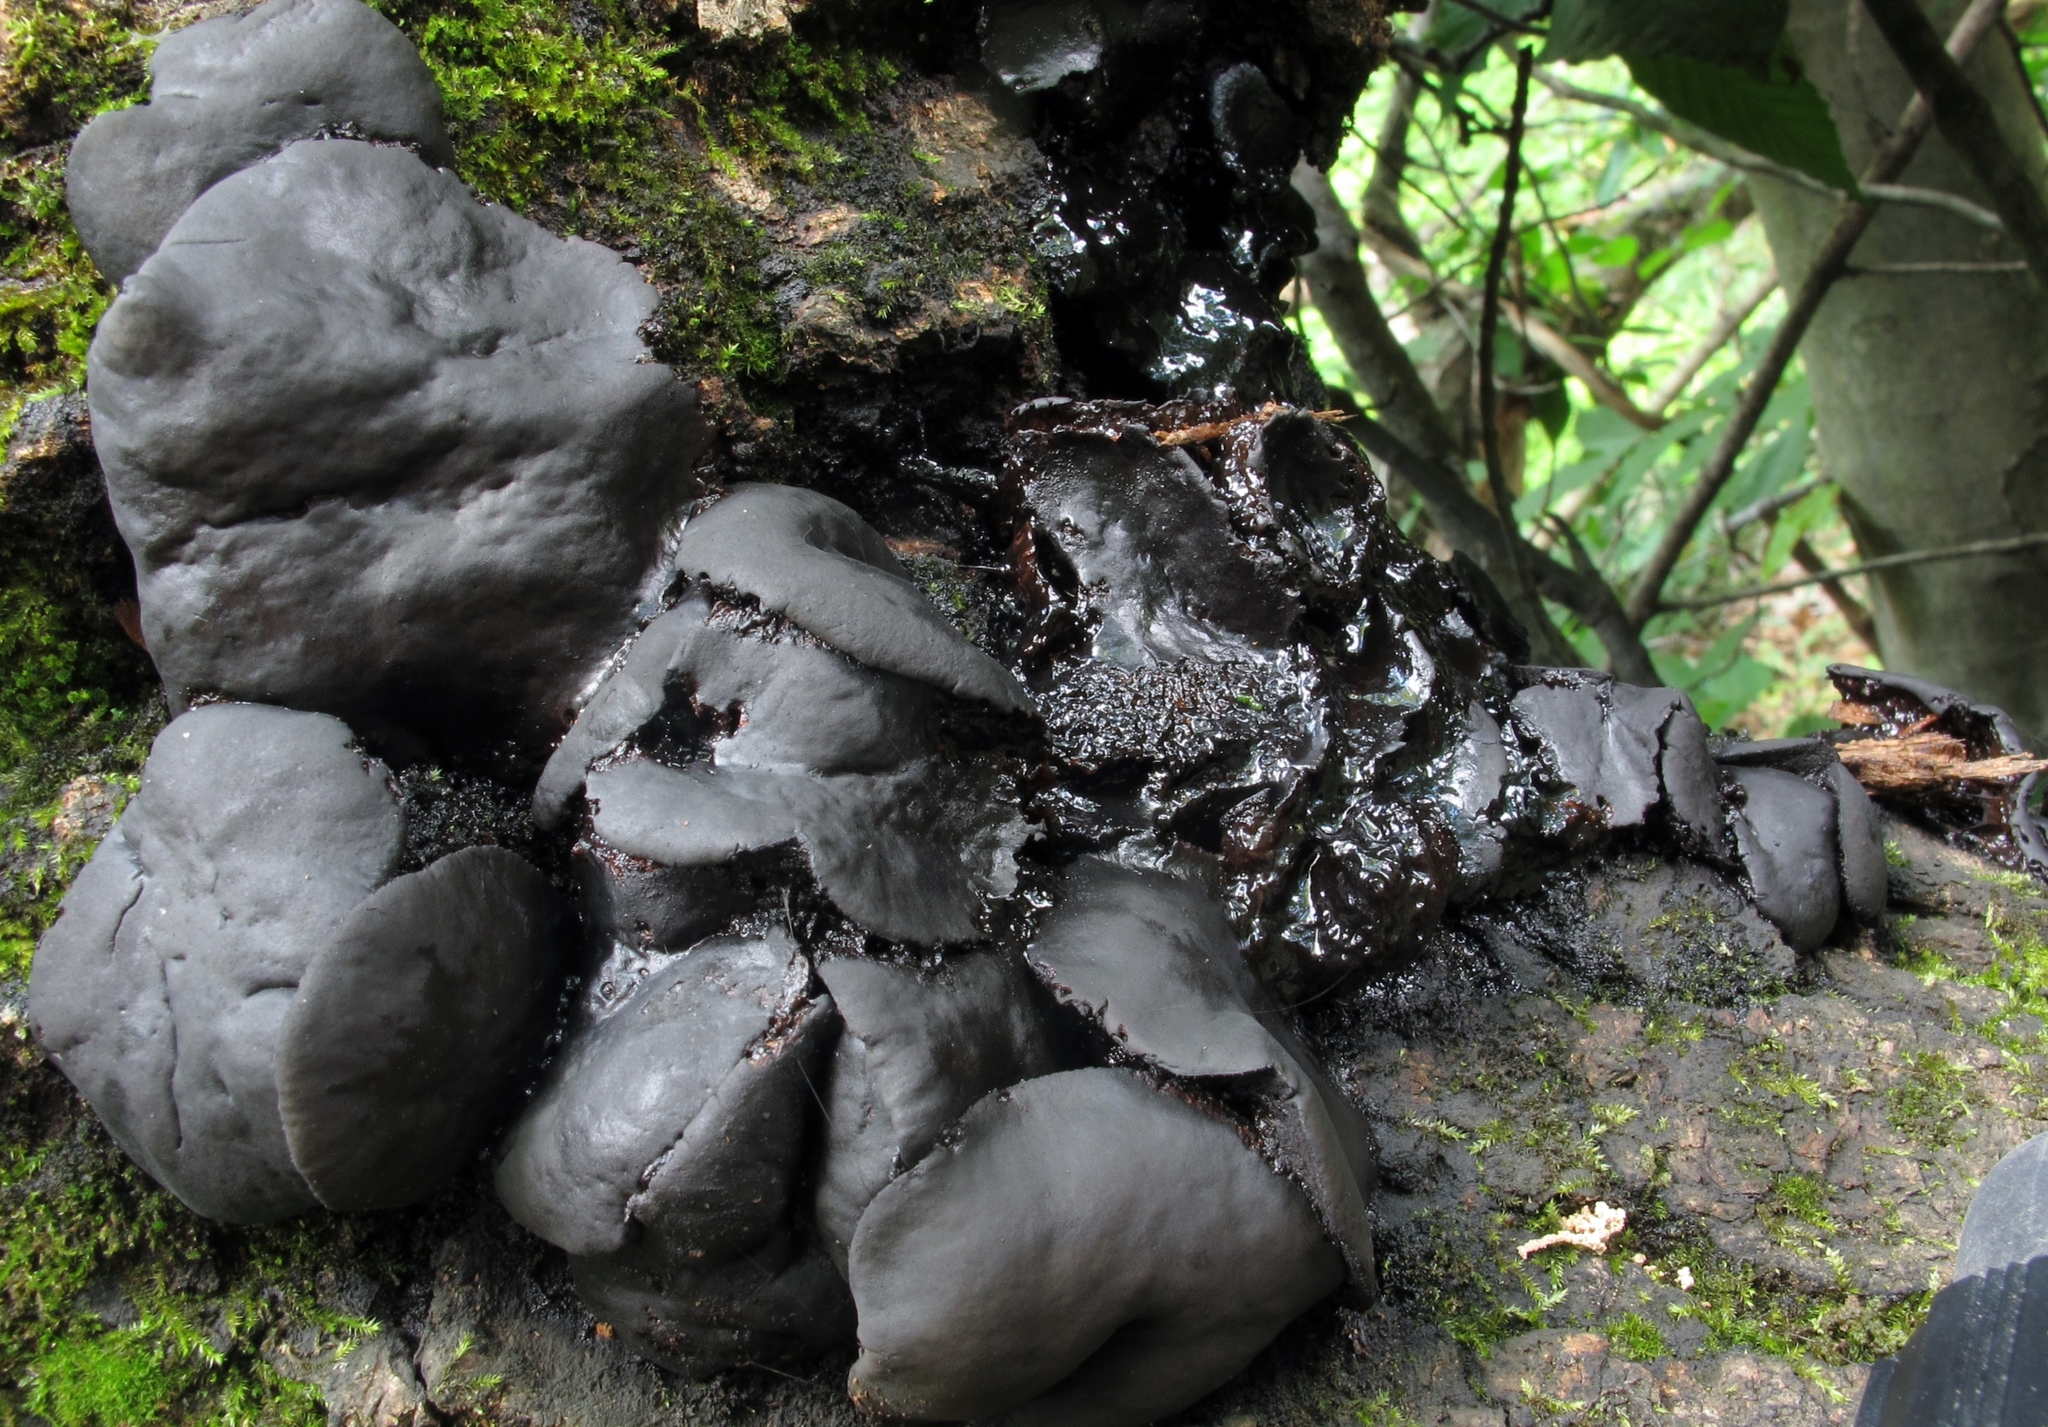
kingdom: Fungi
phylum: Ascomycota
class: Leotiomycetes
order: Phacidiales
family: Phacidiaceae
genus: Bulgaria
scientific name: Bulgaria inquinans
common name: Black bulgar
